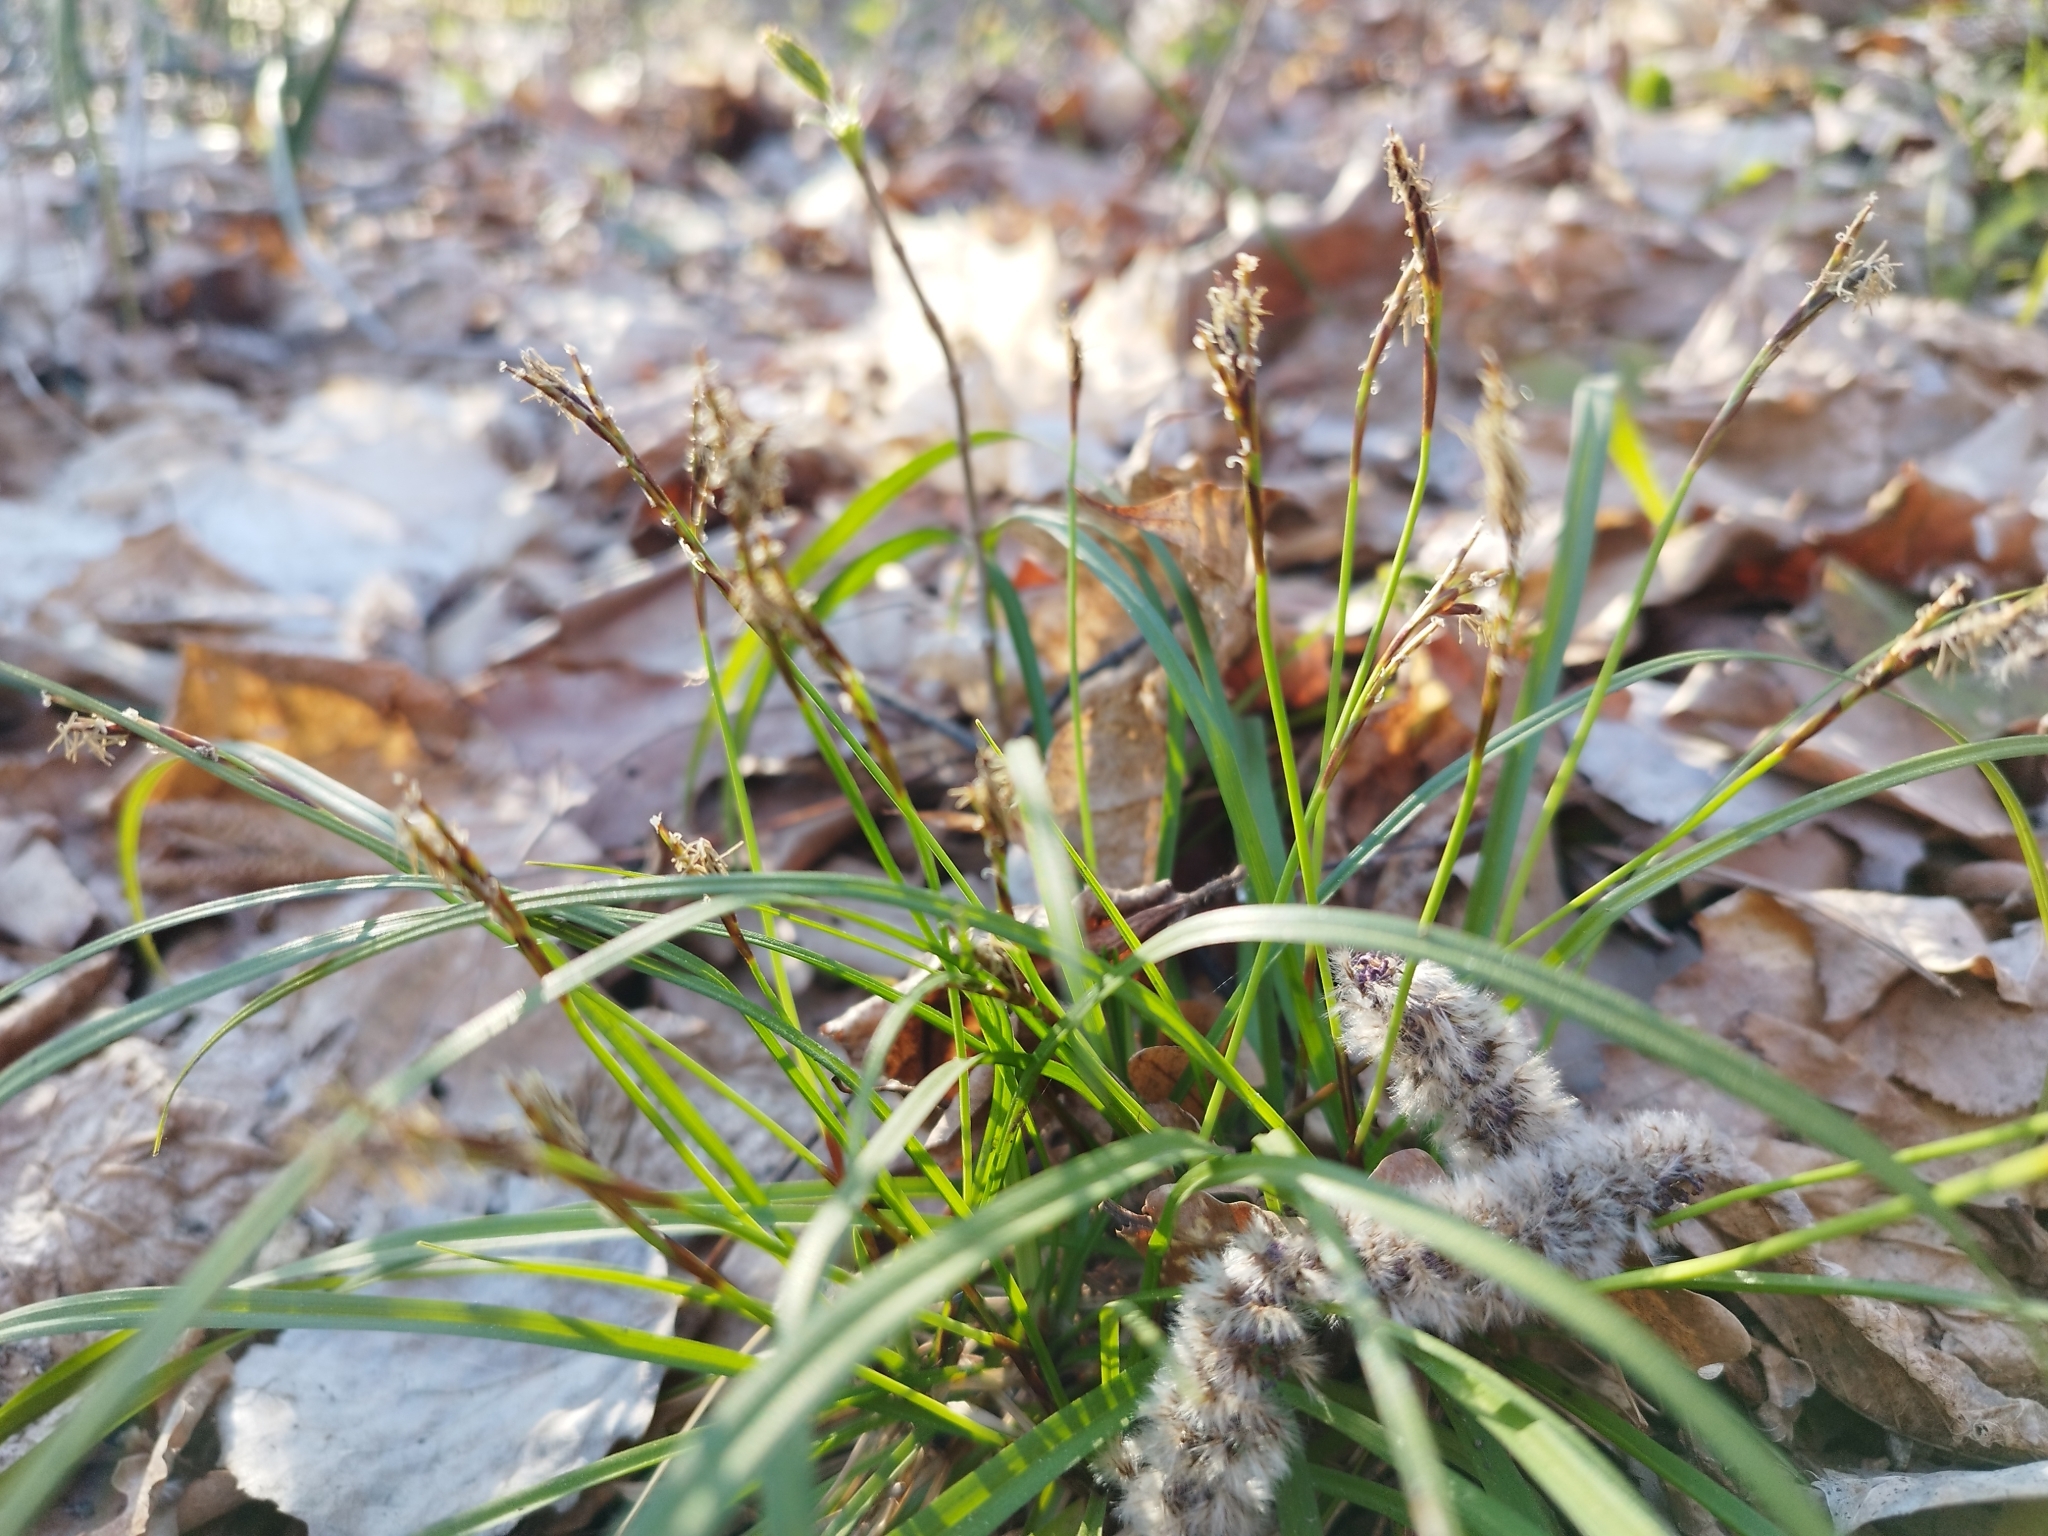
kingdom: Plantae
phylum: Tracheophyta
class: Liliopsida
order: Poales
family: Cyperaceae
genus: Carex
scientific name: Carex digitata
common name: Fingered sedge
